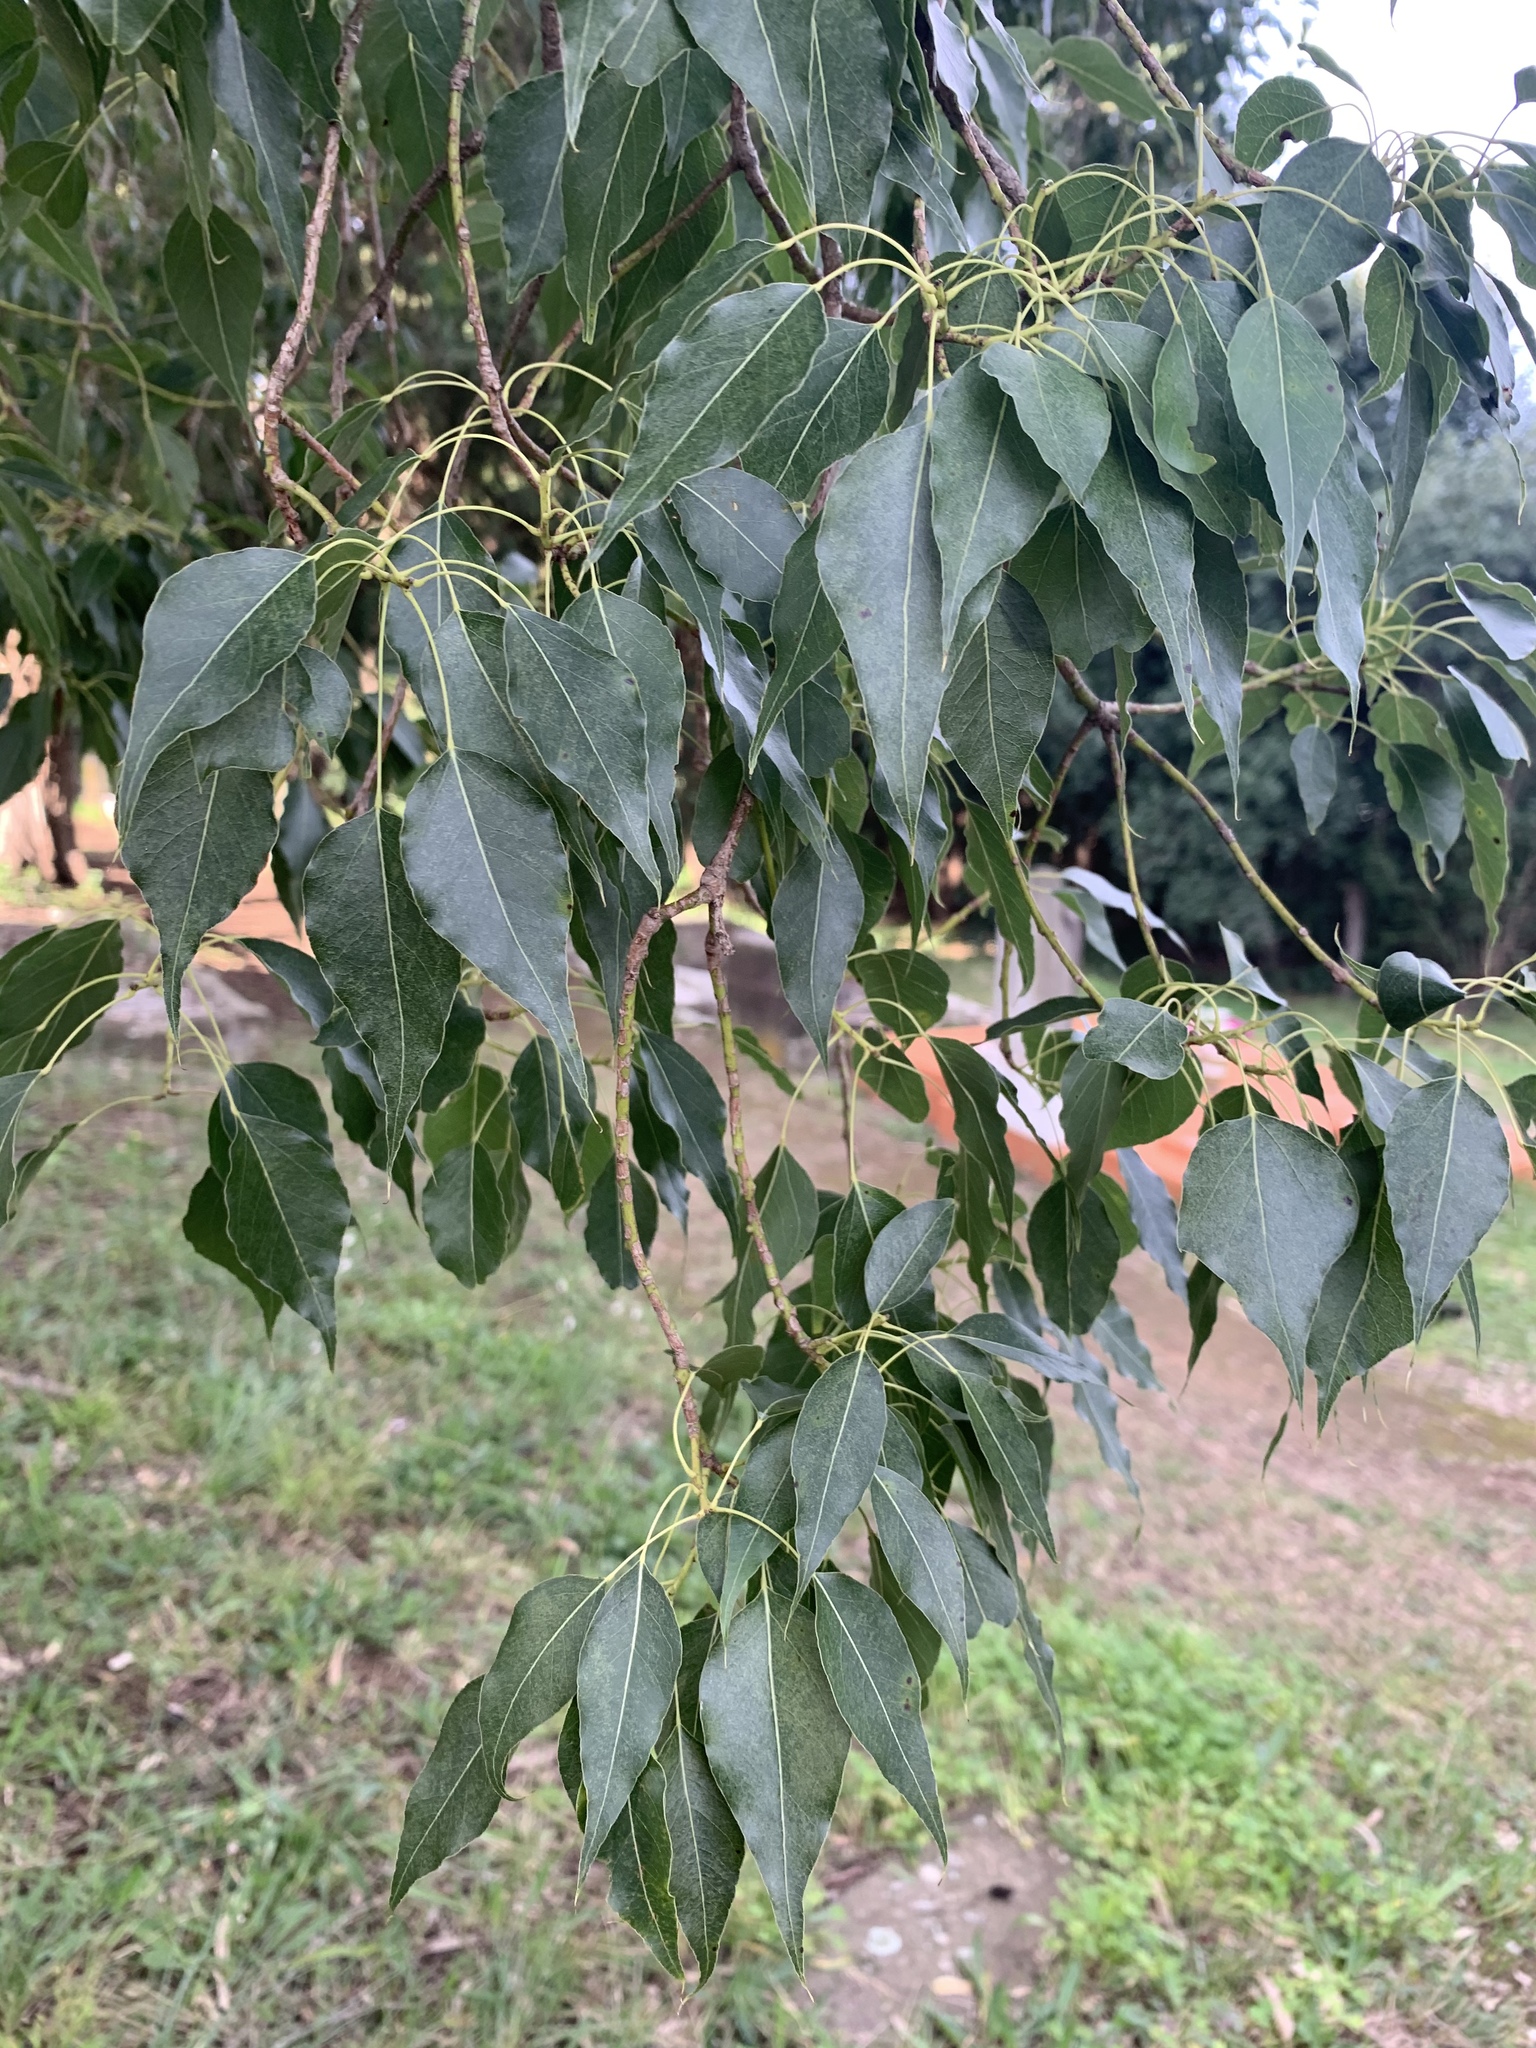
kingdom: Plantae
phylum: Tracheophyta
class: Magnoliopsida
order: Malvales
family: Malvaceae
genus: Brachychiton
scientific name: Brachychiton populneus
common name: Kurrajong
